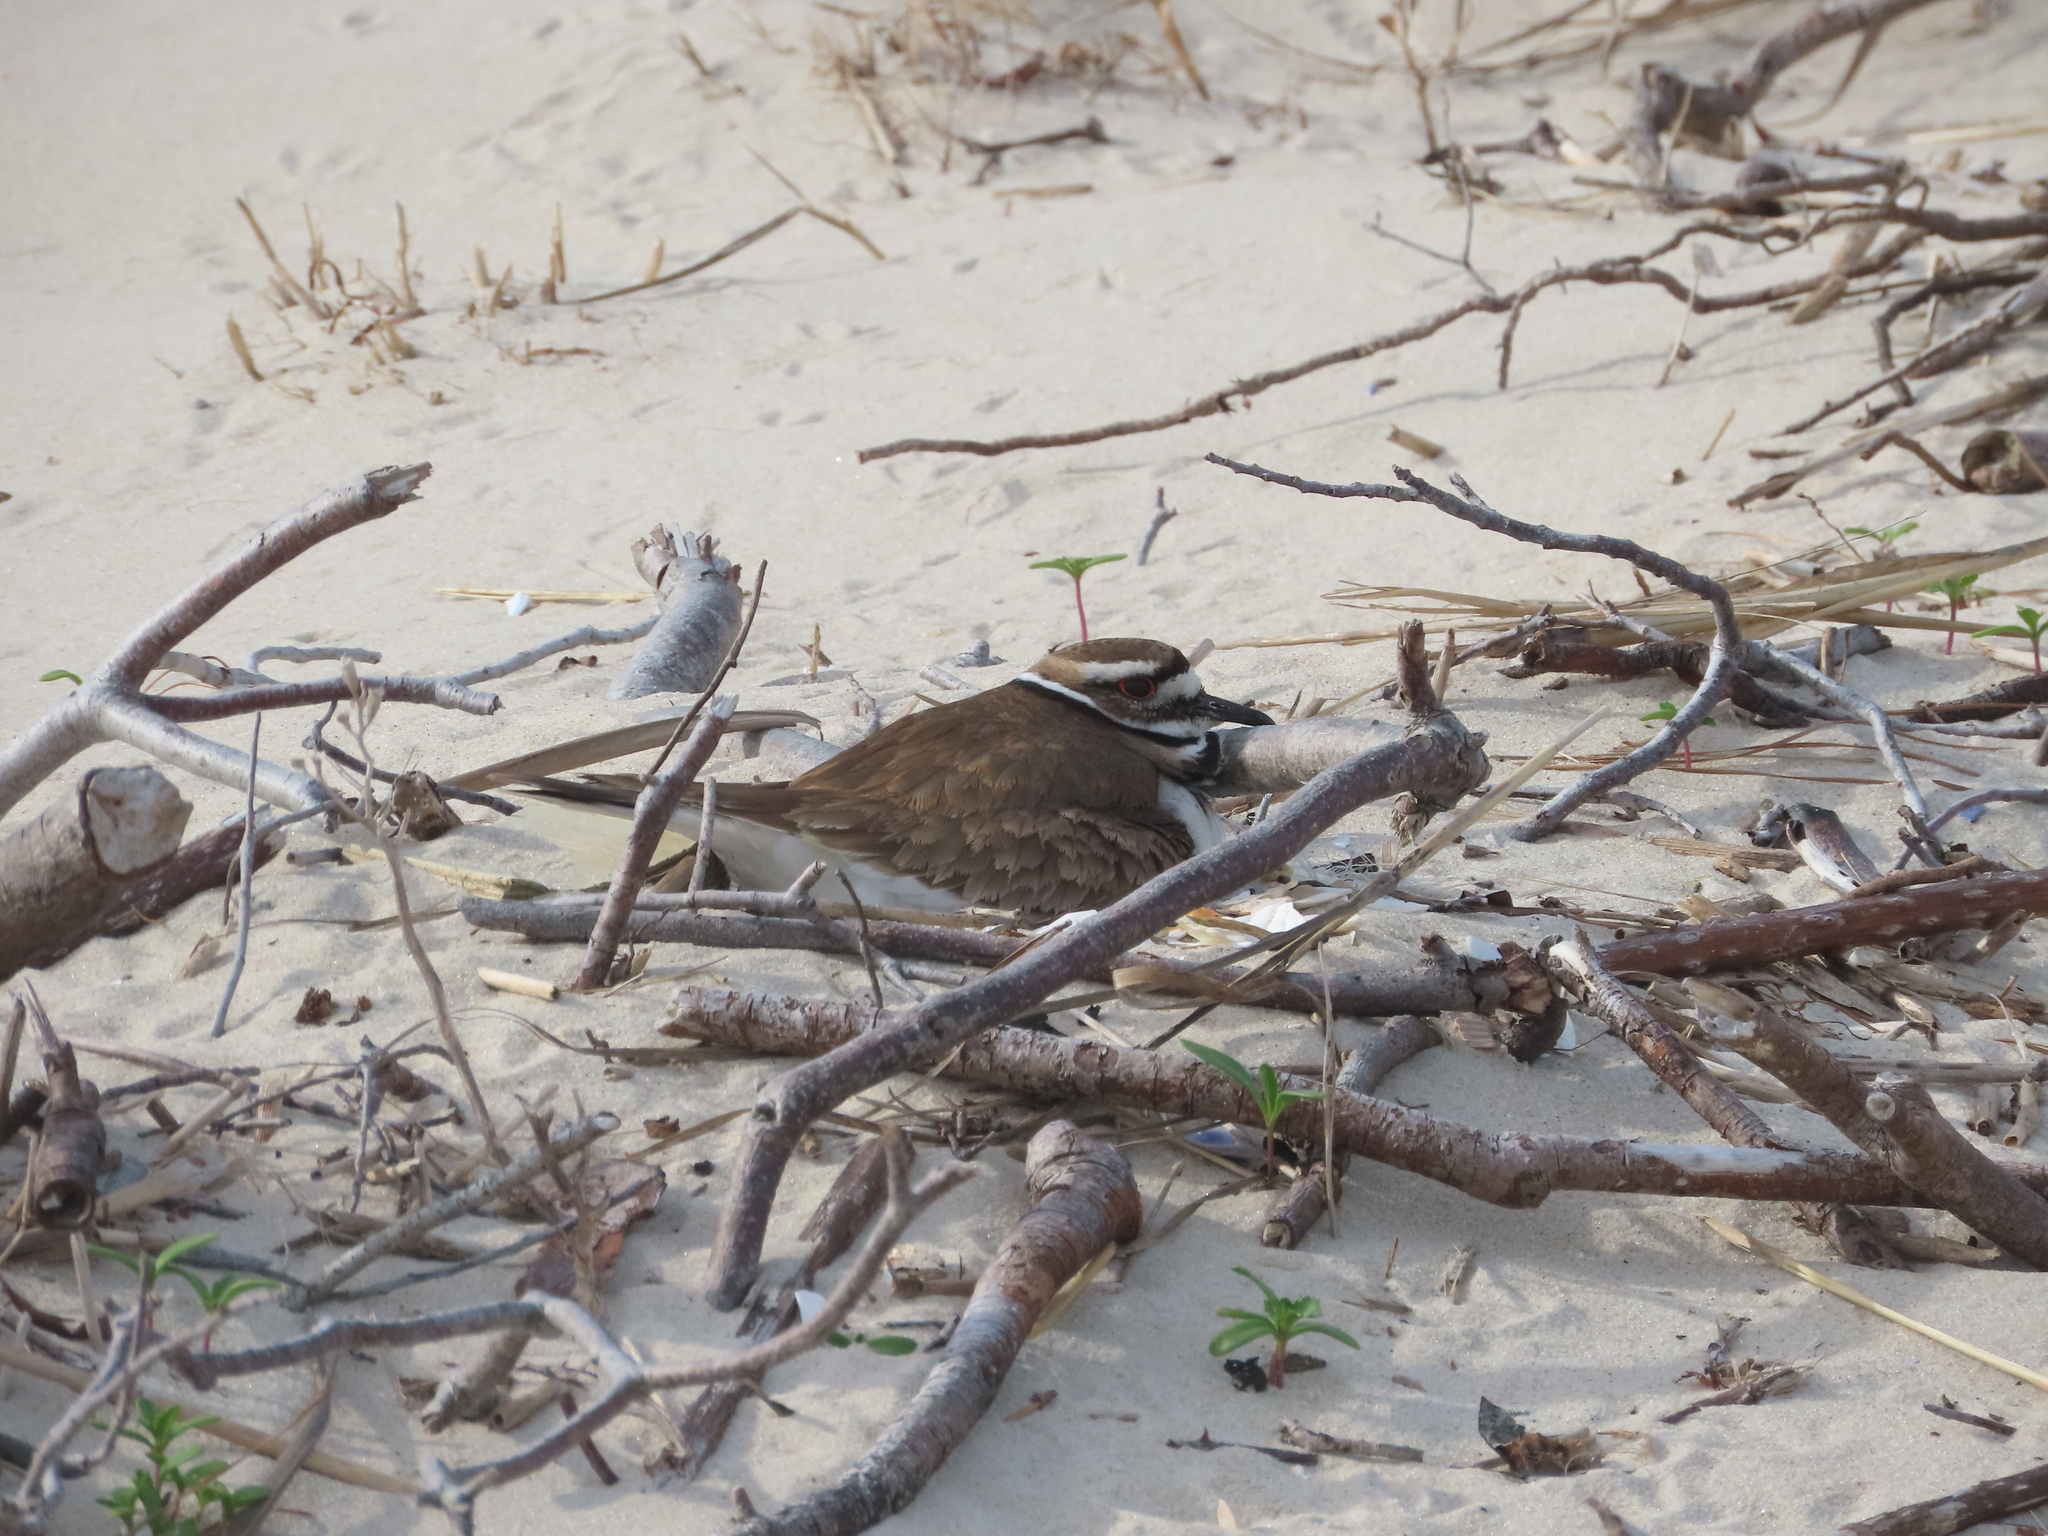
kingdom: Animalia
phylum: Chordata
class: Aves
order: Charadriiformes
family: Charadriidae
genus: Charadrius
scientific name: Charadrius vociferus
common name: Killdeer
